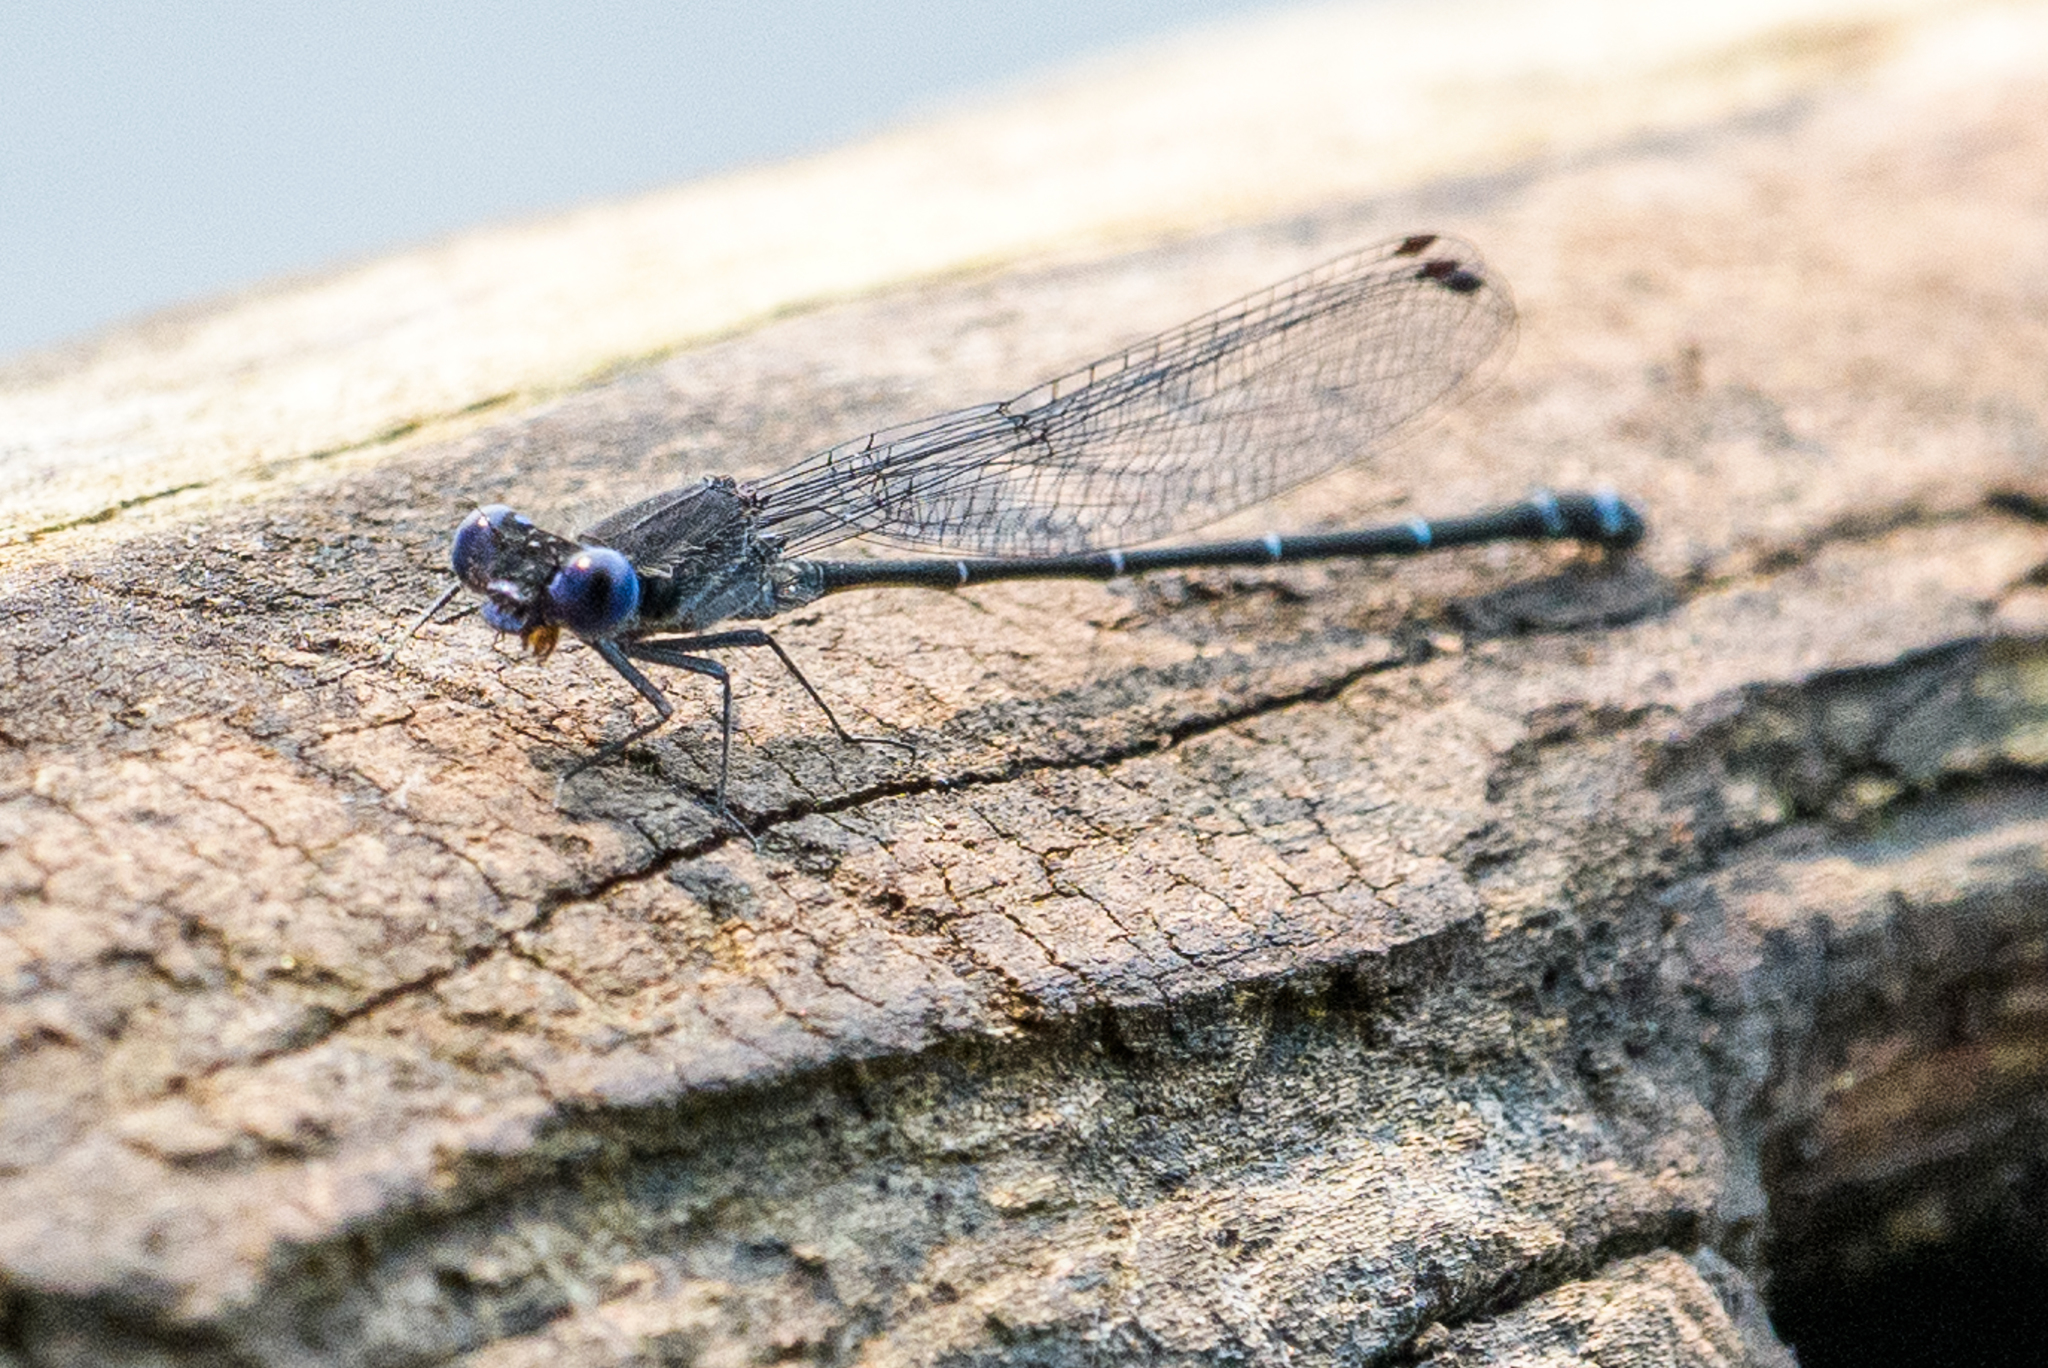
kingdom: Animalia
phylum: Arthropoda
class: Insecta
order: Odonata
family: Coenagrionidae
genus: Argia
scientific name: Argia translata
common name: Dusky dancer
